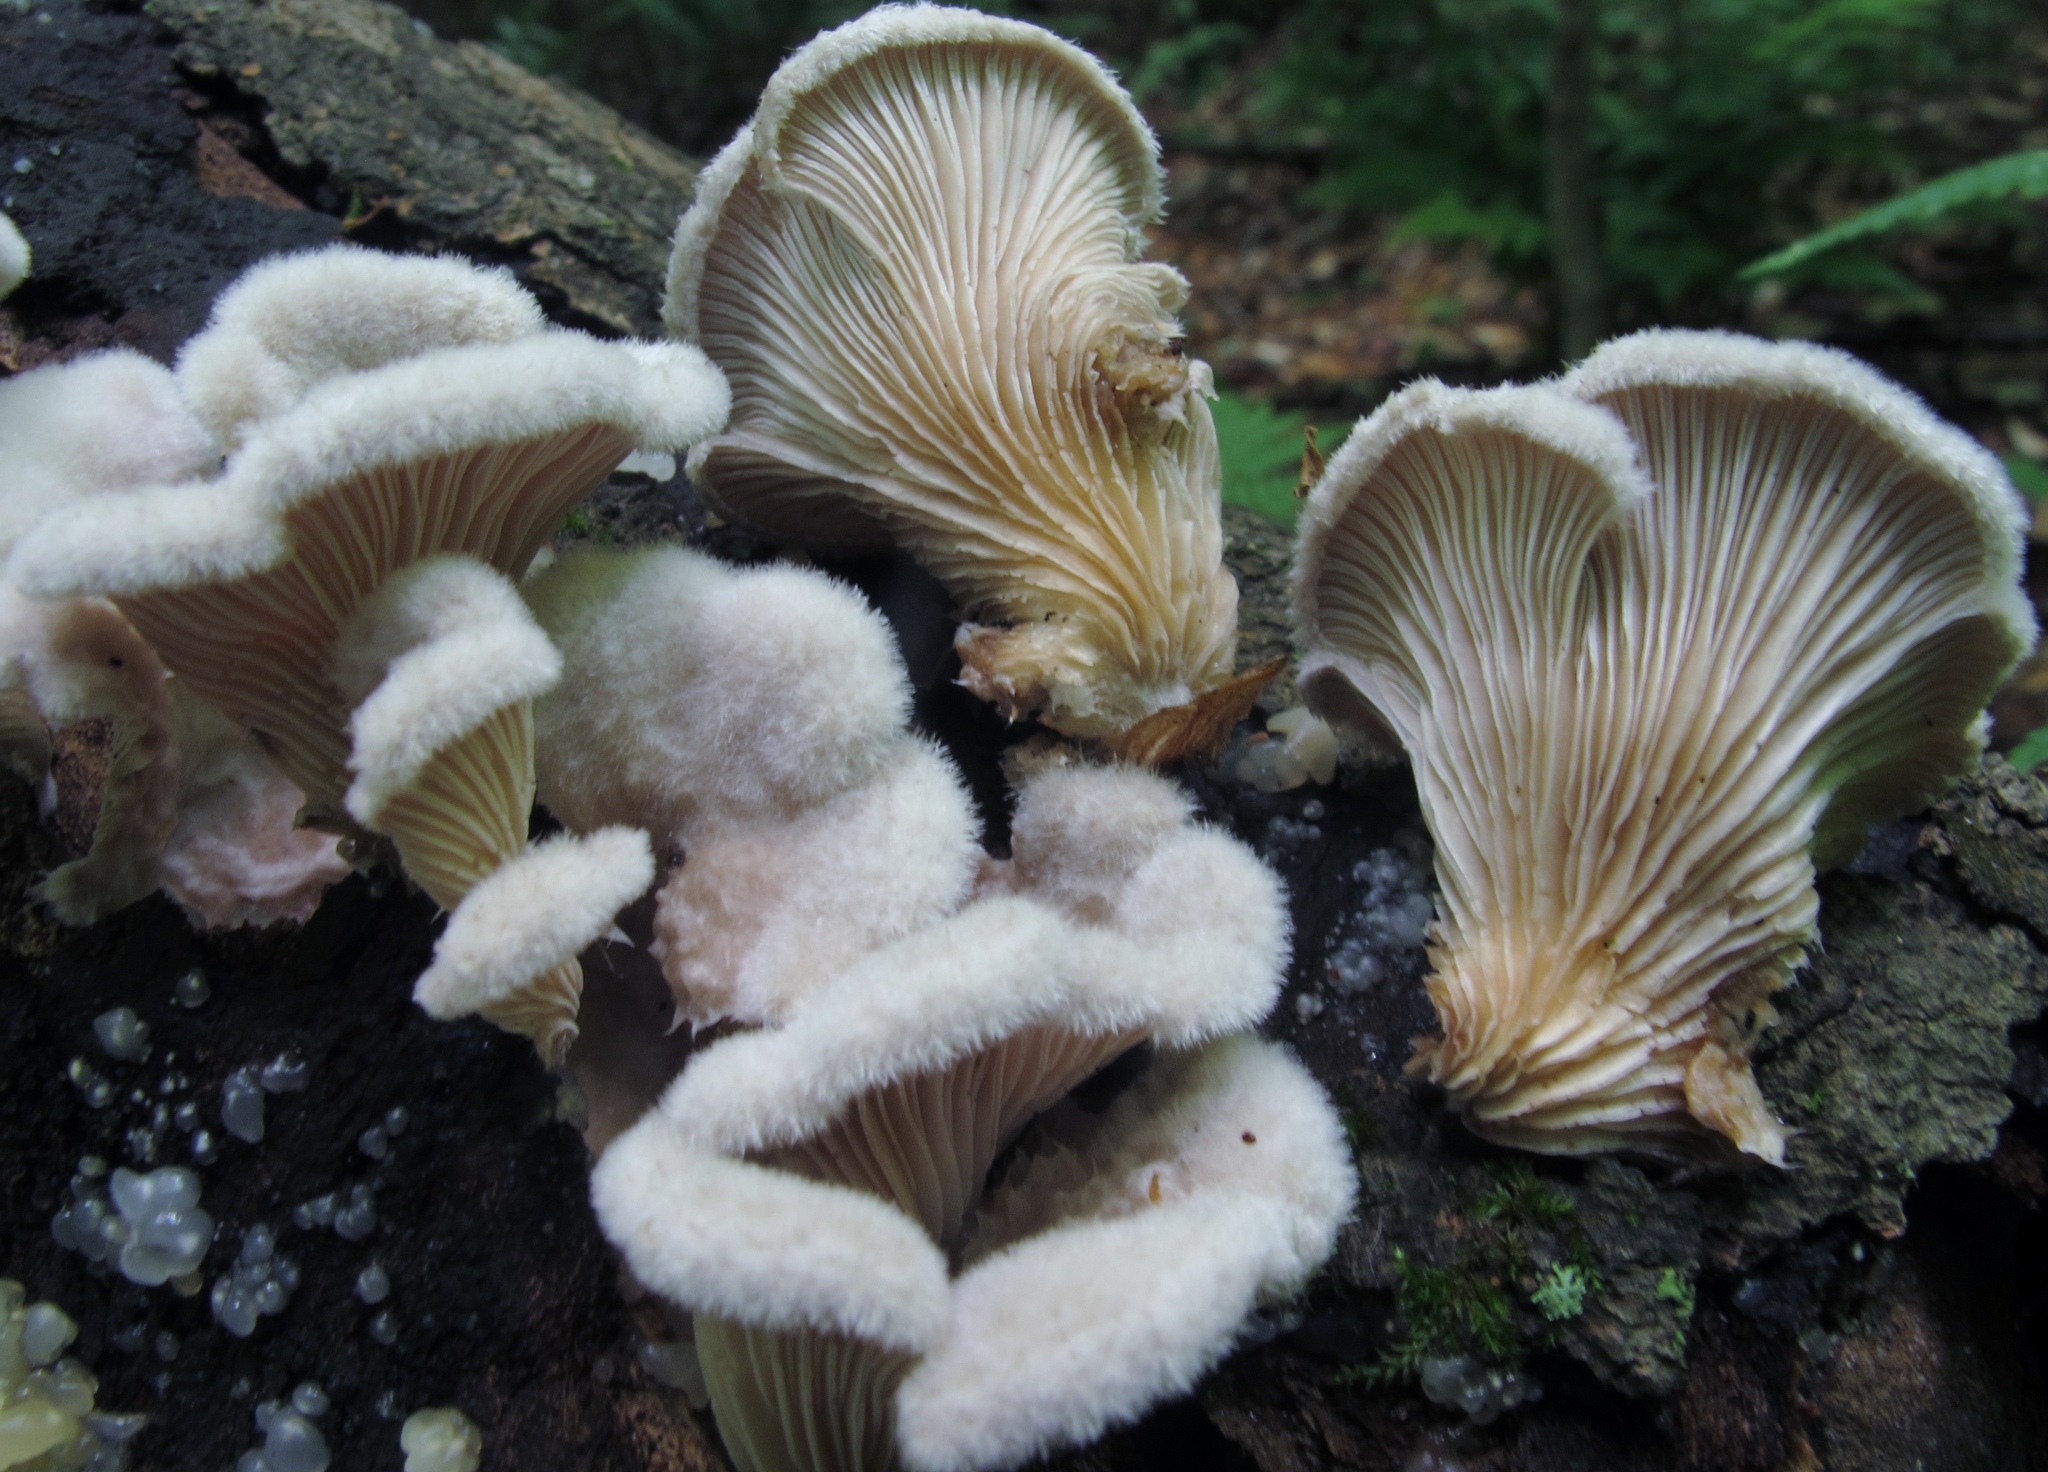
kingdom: Fungi
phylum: Basidiomycota
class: Agaricomycetes
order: Agaricales
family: Schizophyllaceae
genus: Schizophyllum
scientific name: Schizophyllum commune
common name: Common porecrust
